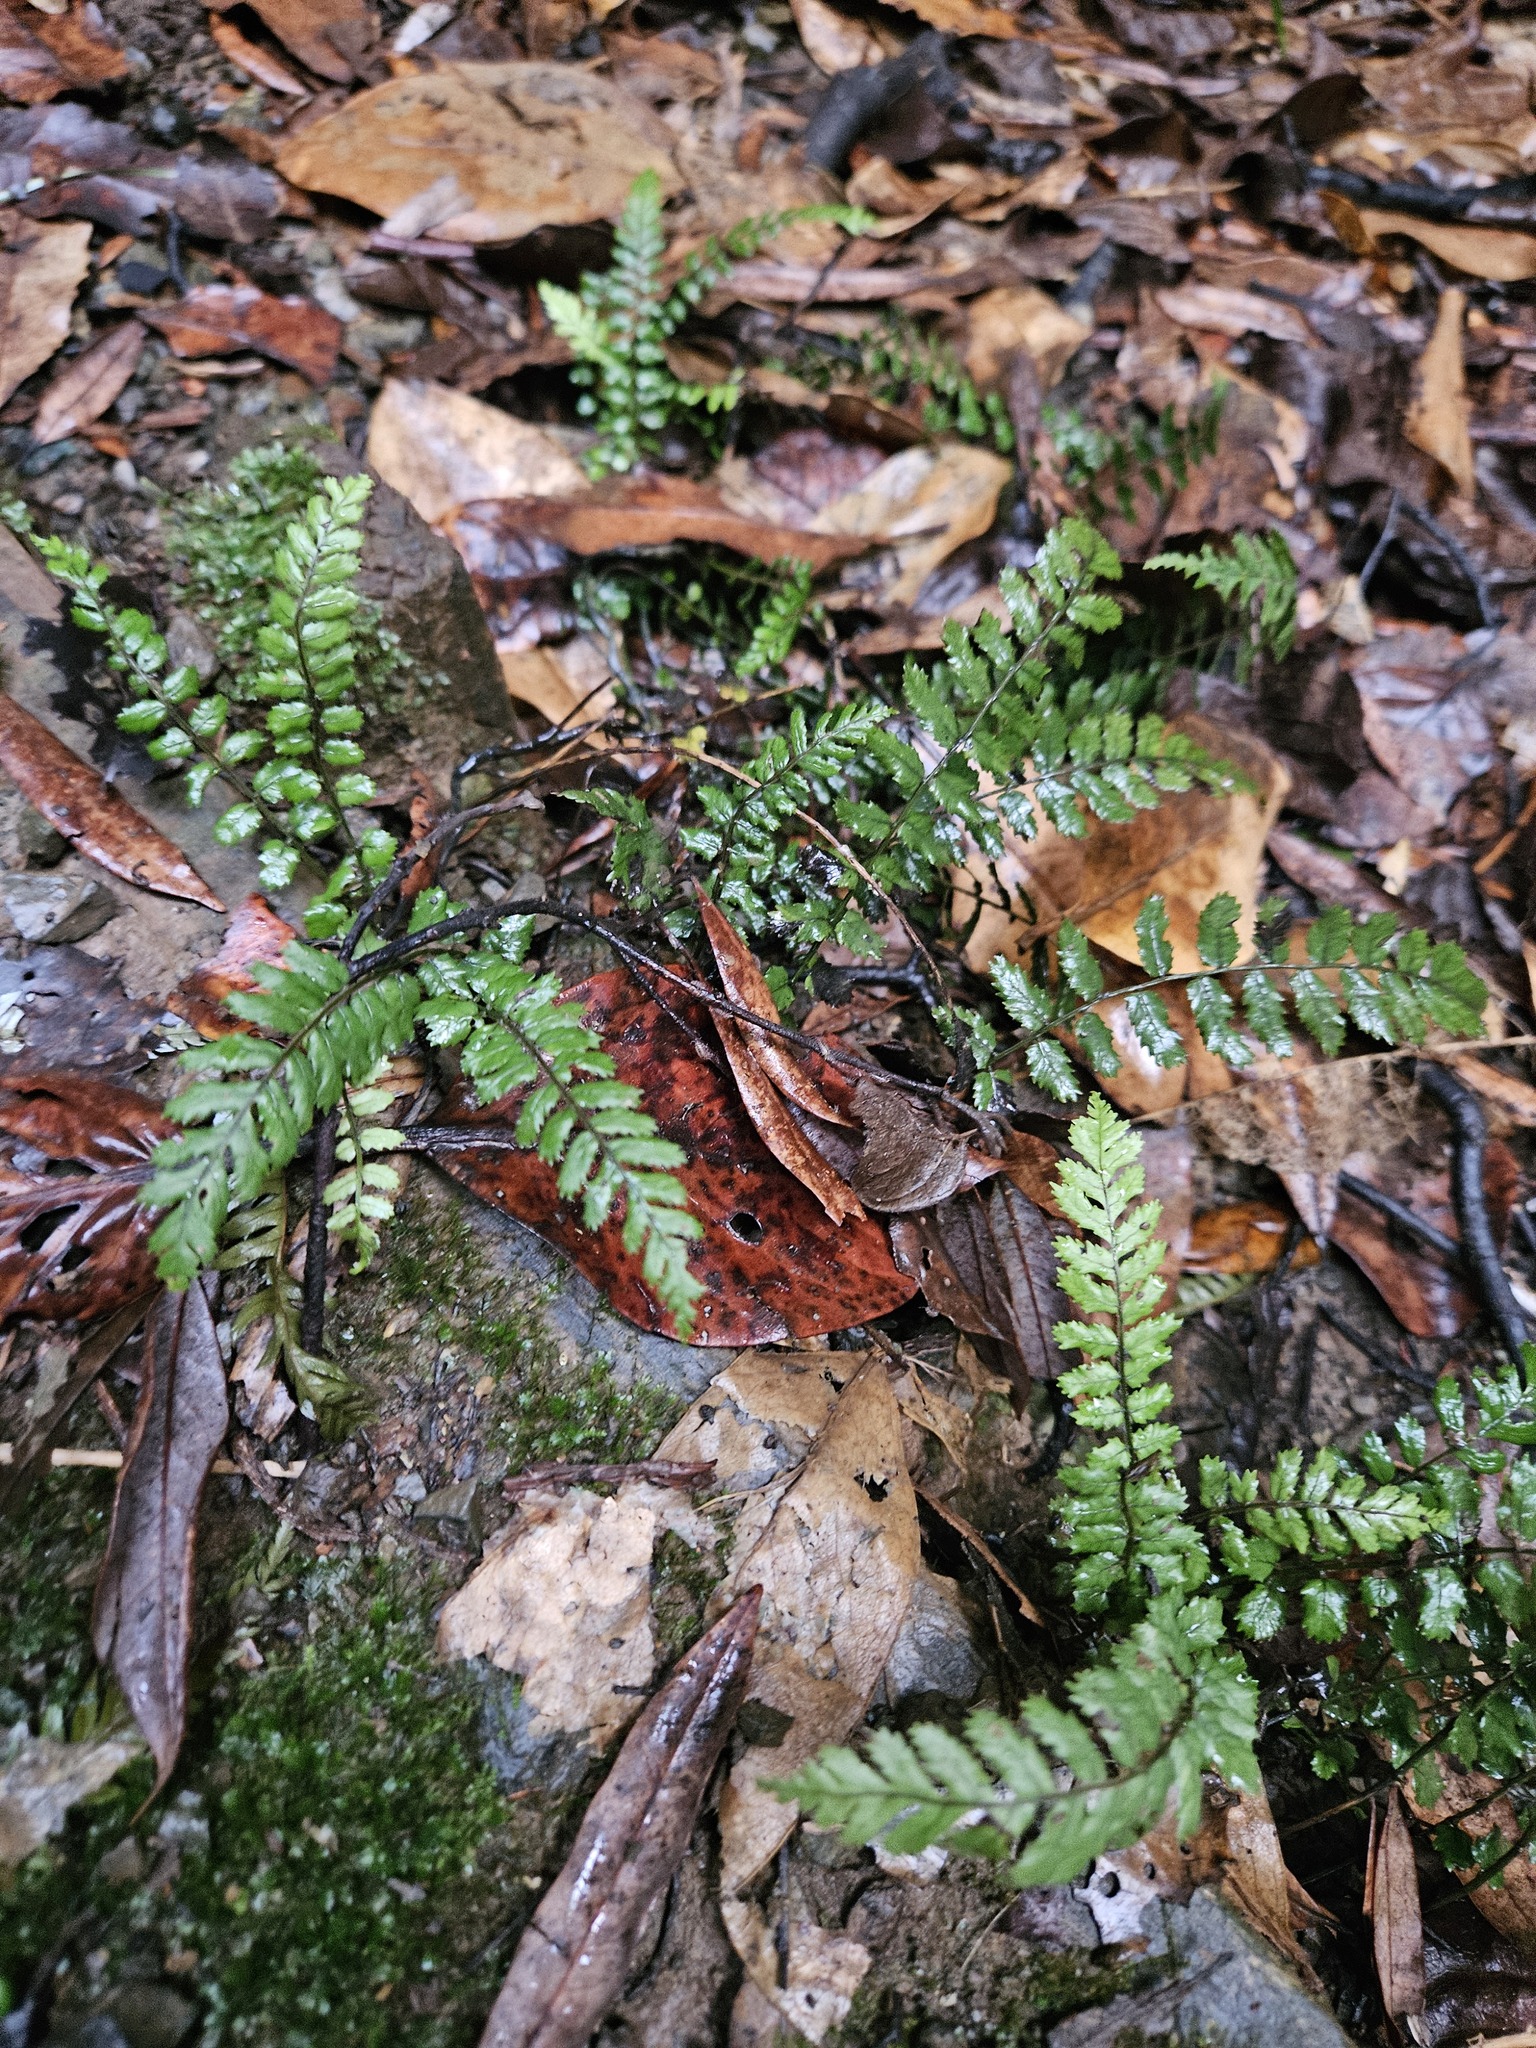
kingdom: Plantae
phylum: Tracheophyta
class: Polypodiopsida
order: Polypodiales
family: Blechnaceae
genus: Icarus
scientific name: Icarus filiformis
